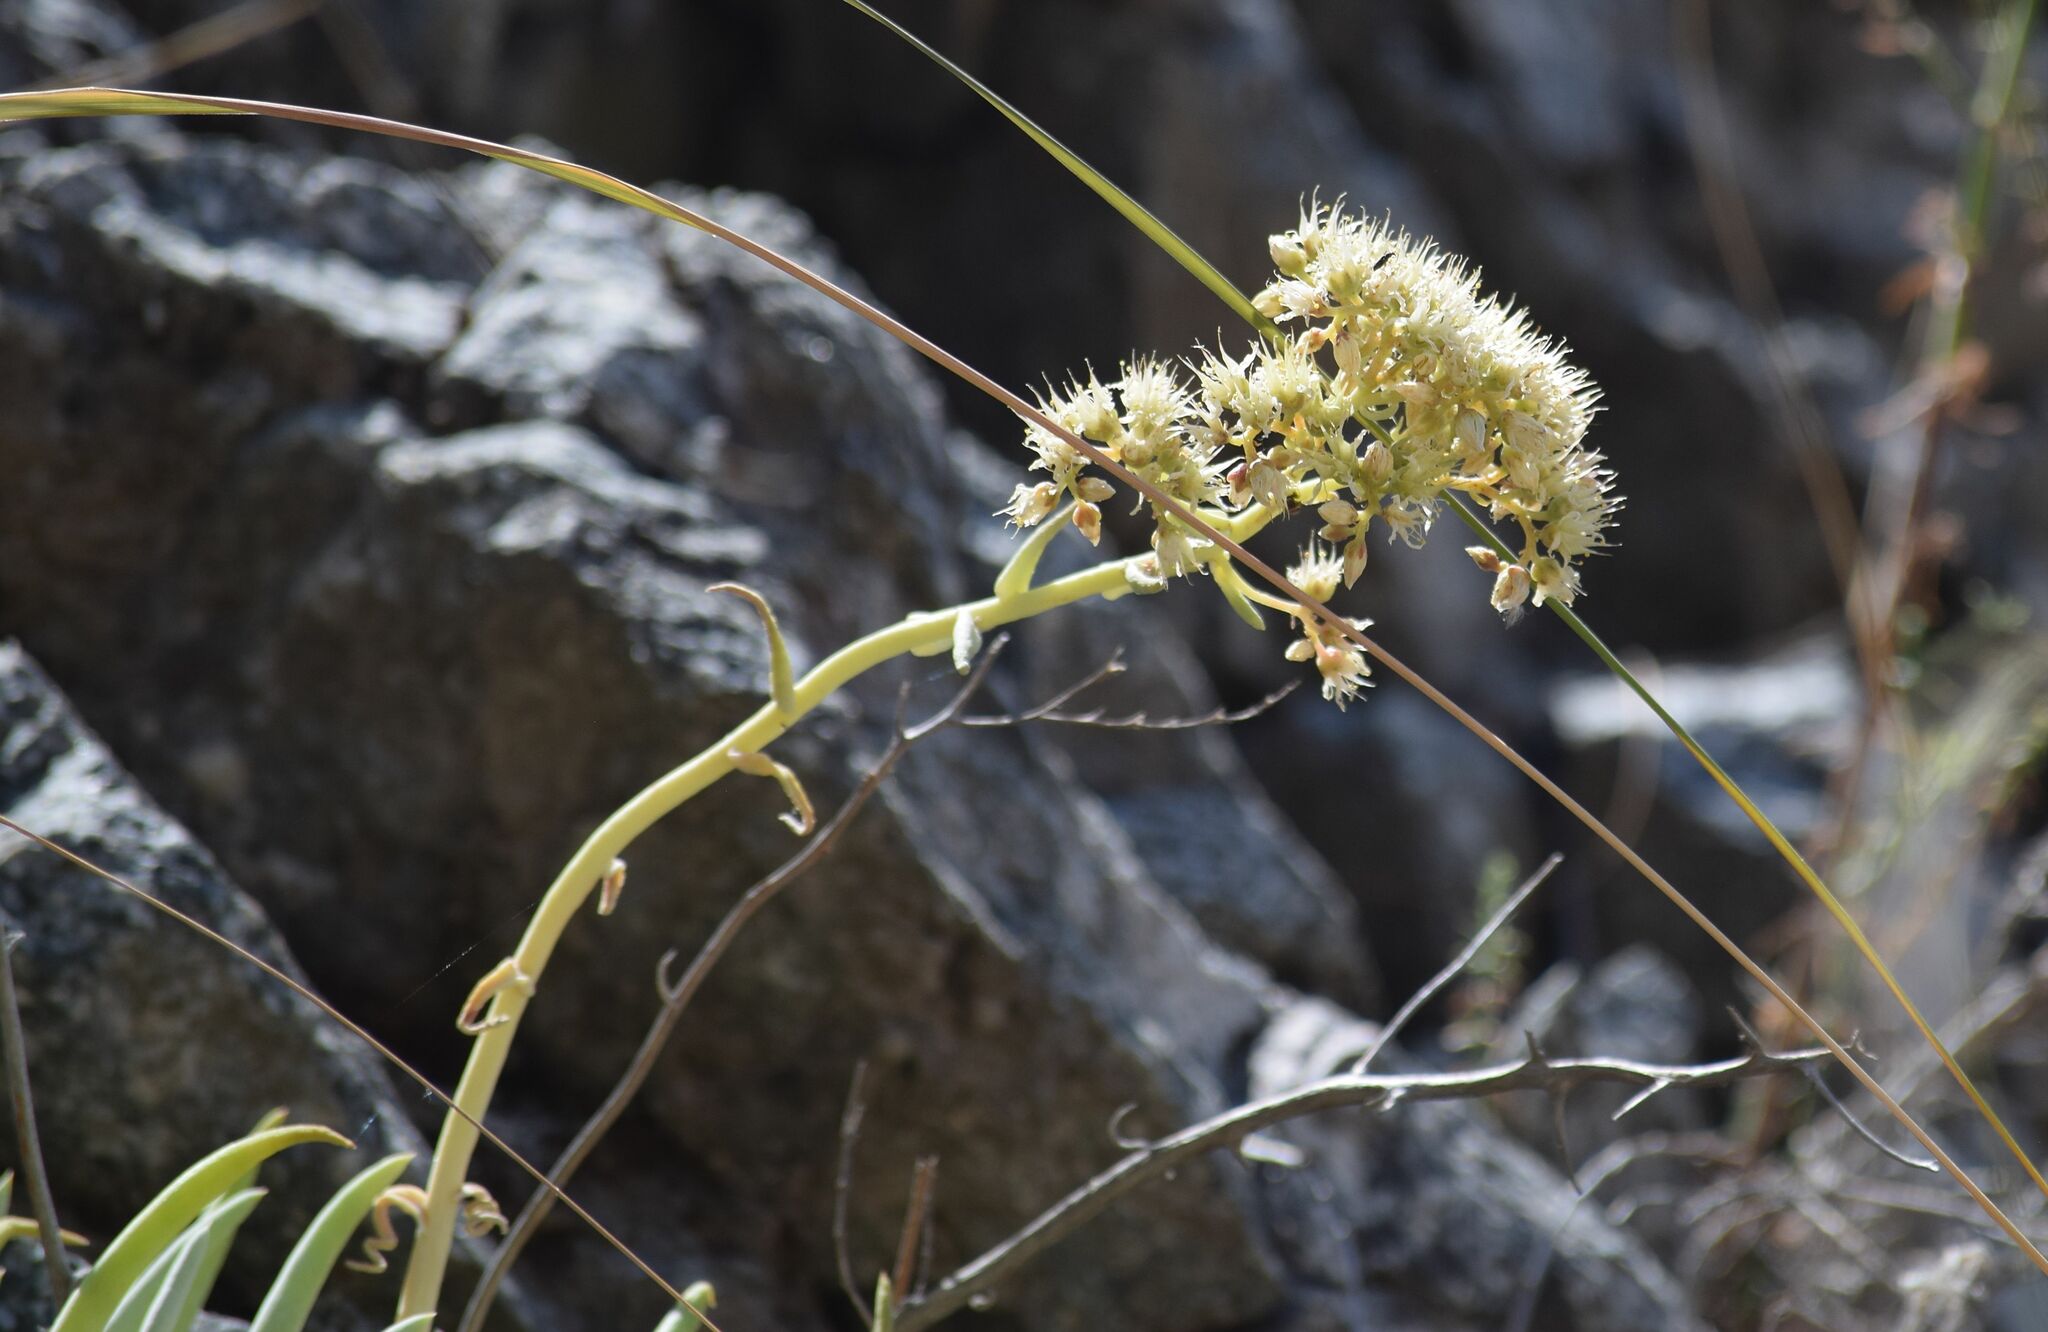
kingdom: Plantae
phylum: Tracheophyta
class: Magnoliopsida
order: Saxifragales
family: Crassulaceae
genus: Dudleya
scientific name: Dudleya densiflora
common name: San gabriel mountains dudleya
